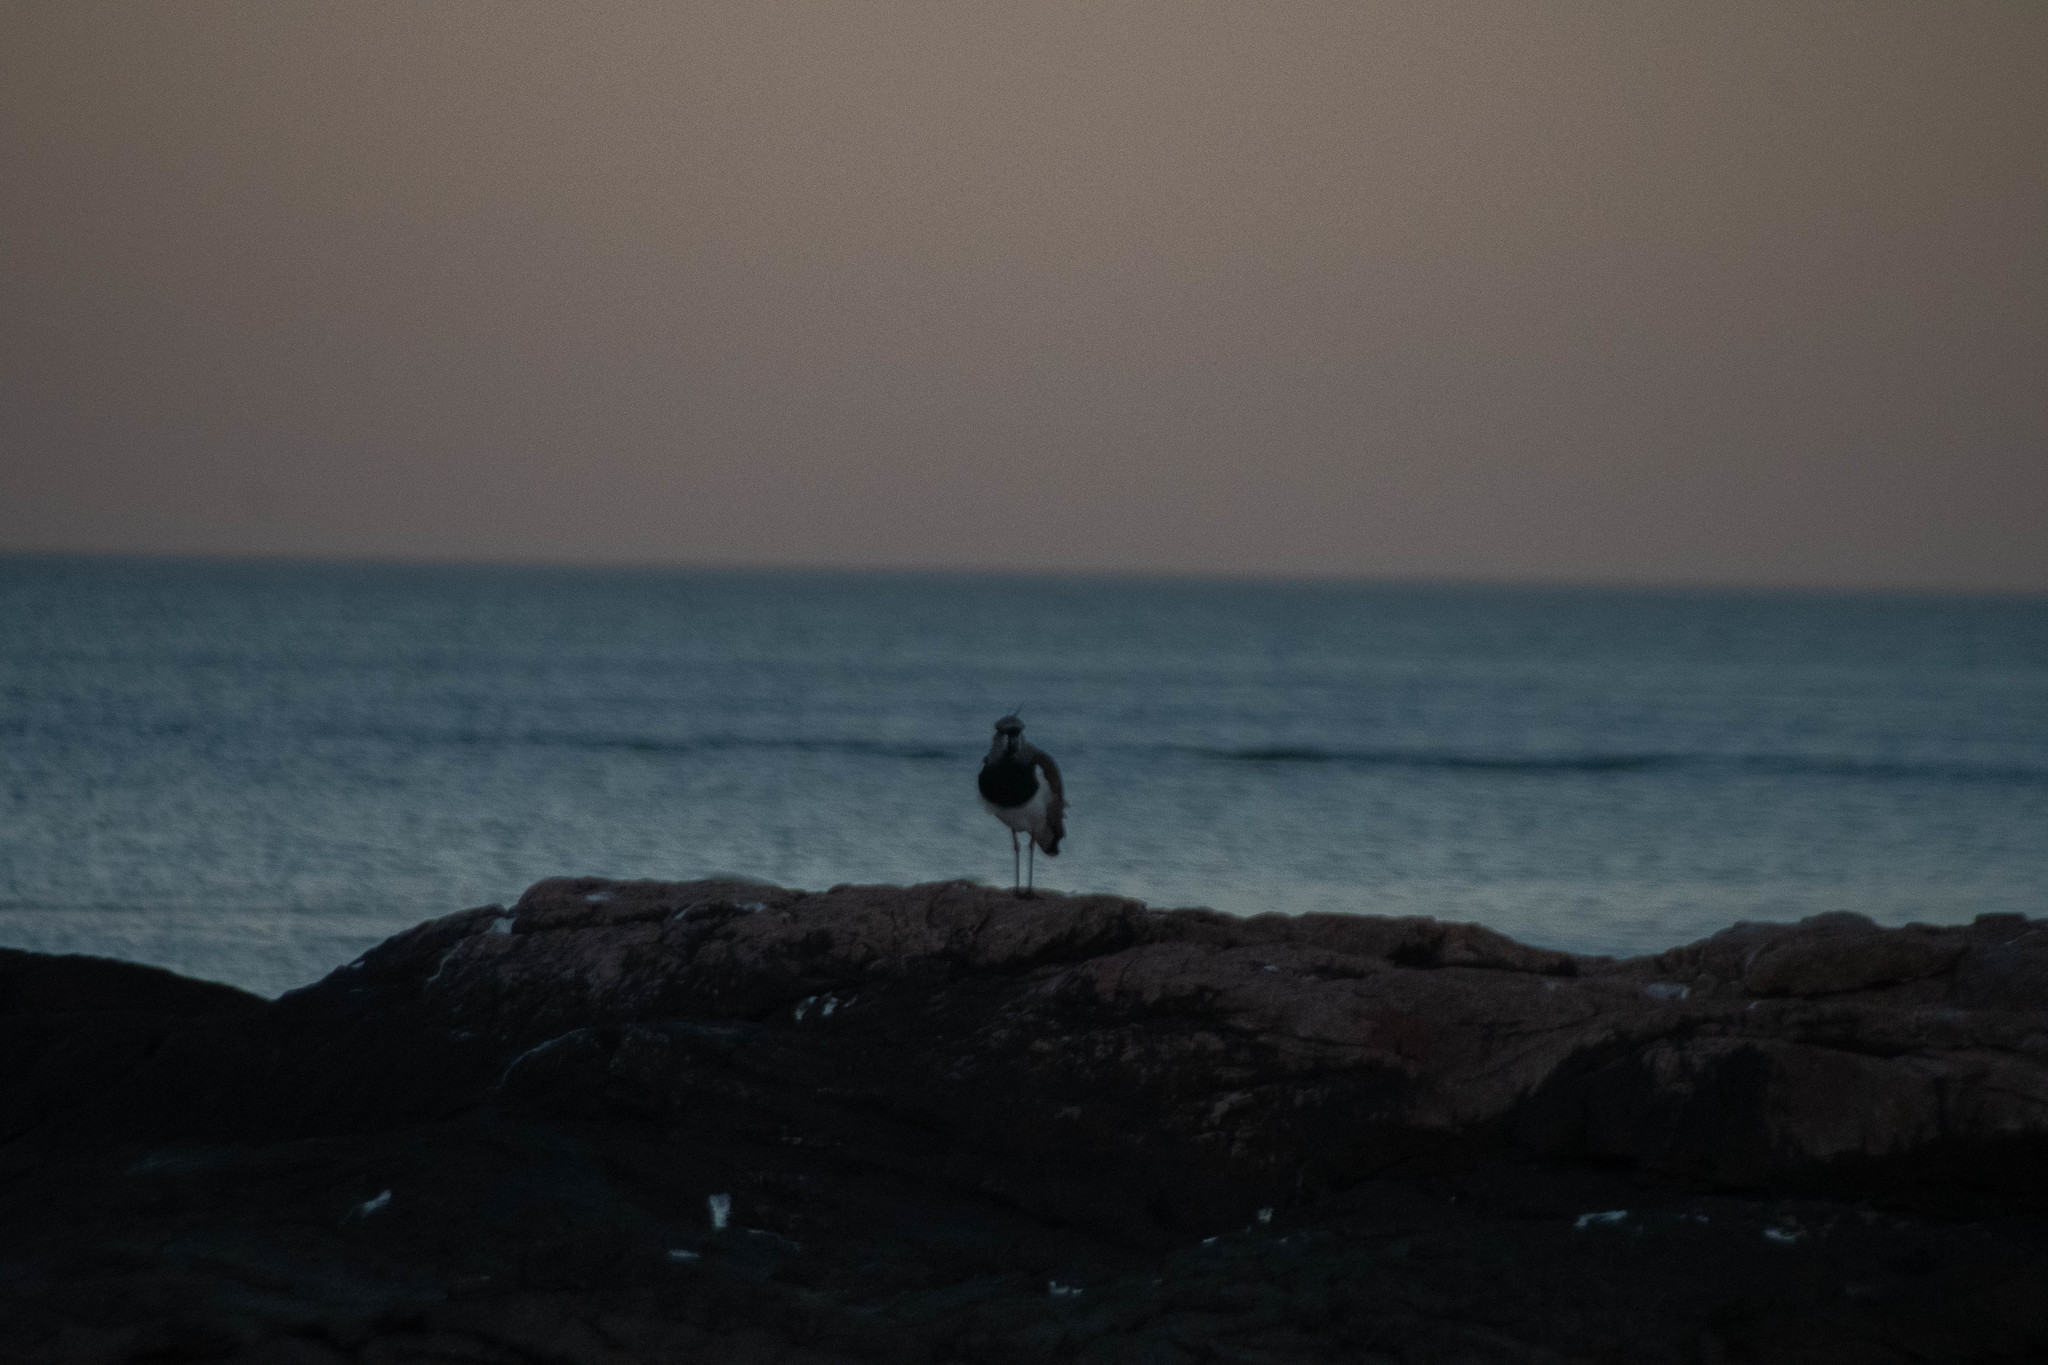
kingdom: Animalia
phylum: Chordata
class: Aves
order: Charadriiformes
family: Charadriidae
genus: Vanellus
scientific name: Vanellus chilensis
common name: Southern lapwing
